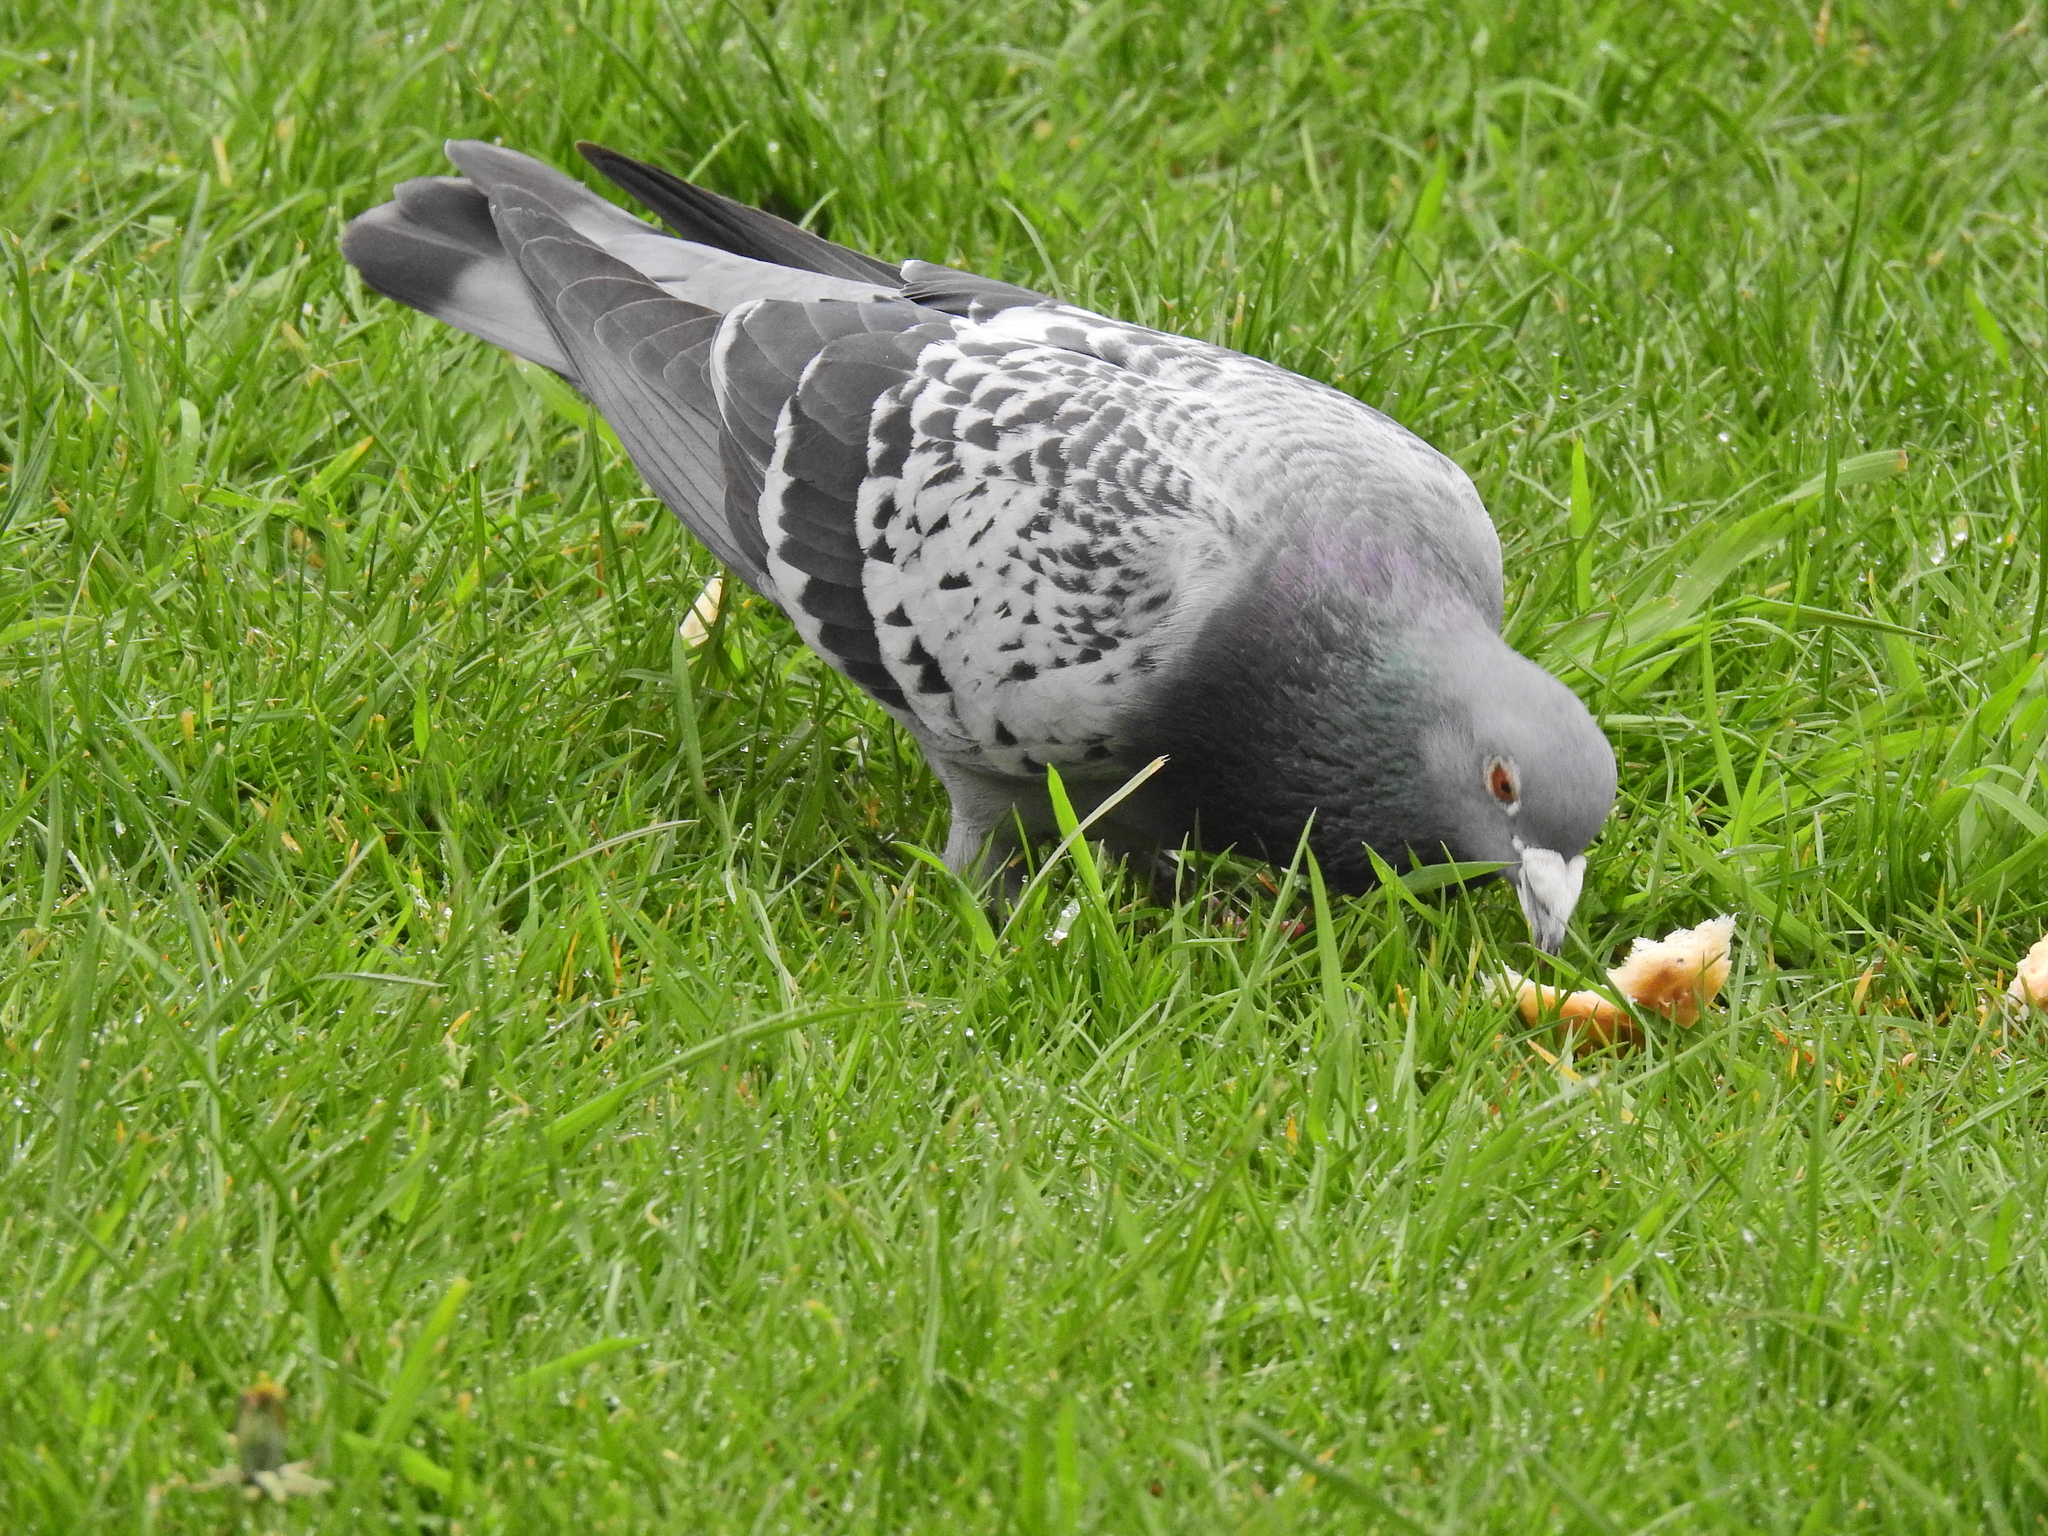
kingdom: Animalia
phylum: Chordata
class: Aves
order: Columbiformes
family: Columbidae
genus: Columba
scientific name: Columba livia
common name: Rock pigeon
